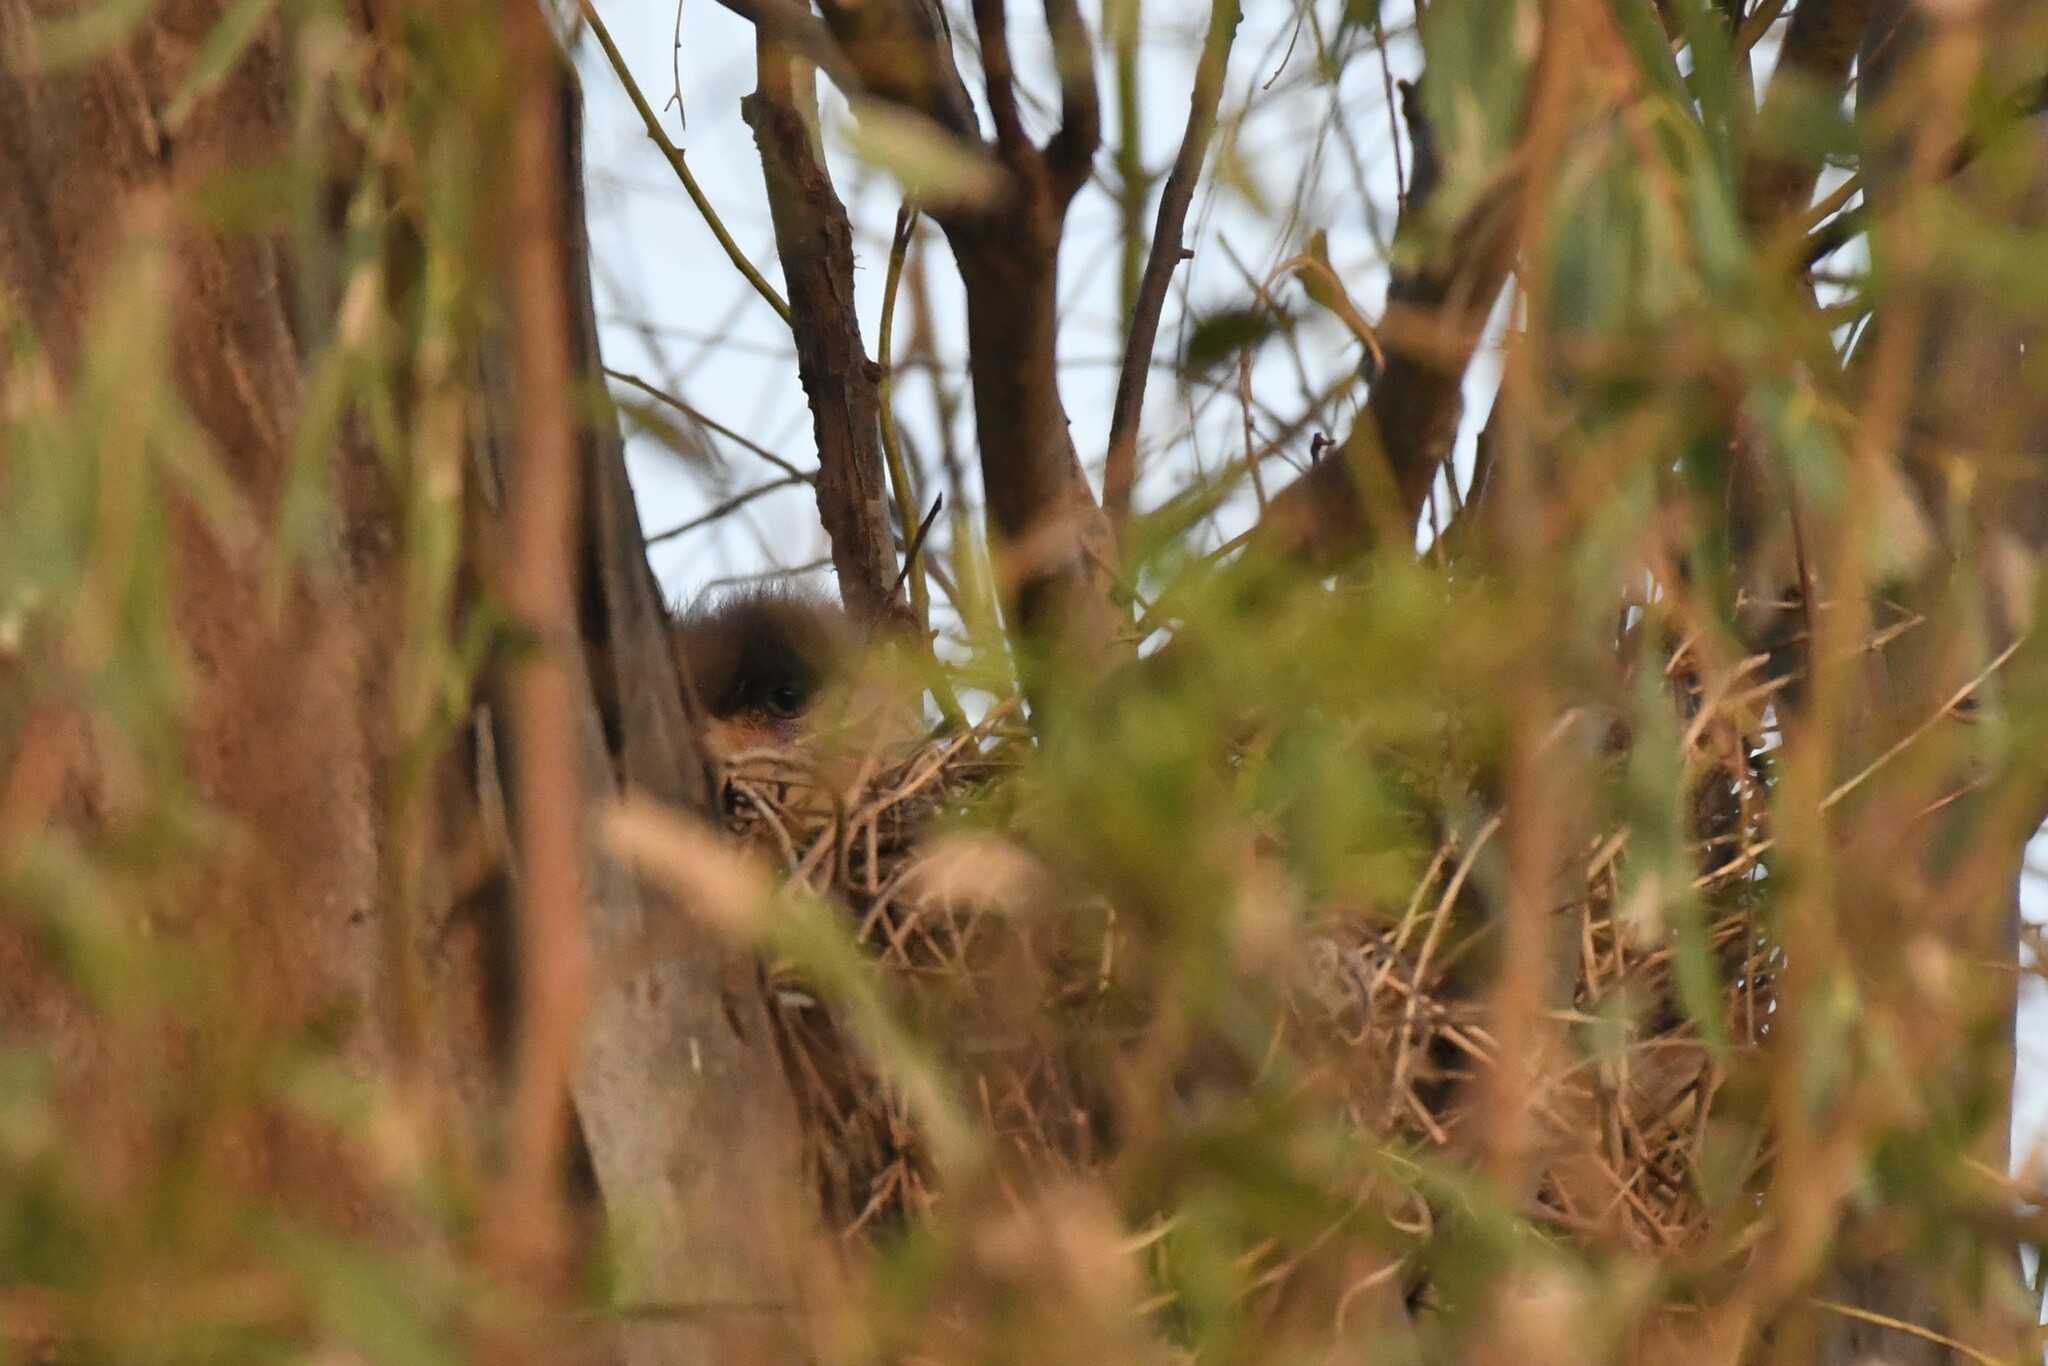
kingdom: Animalia
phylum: Chordata
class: Aves
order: Falconiformes
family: Falconidae
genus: Caracara
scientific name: Caracara plancus
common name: Southern caracara
